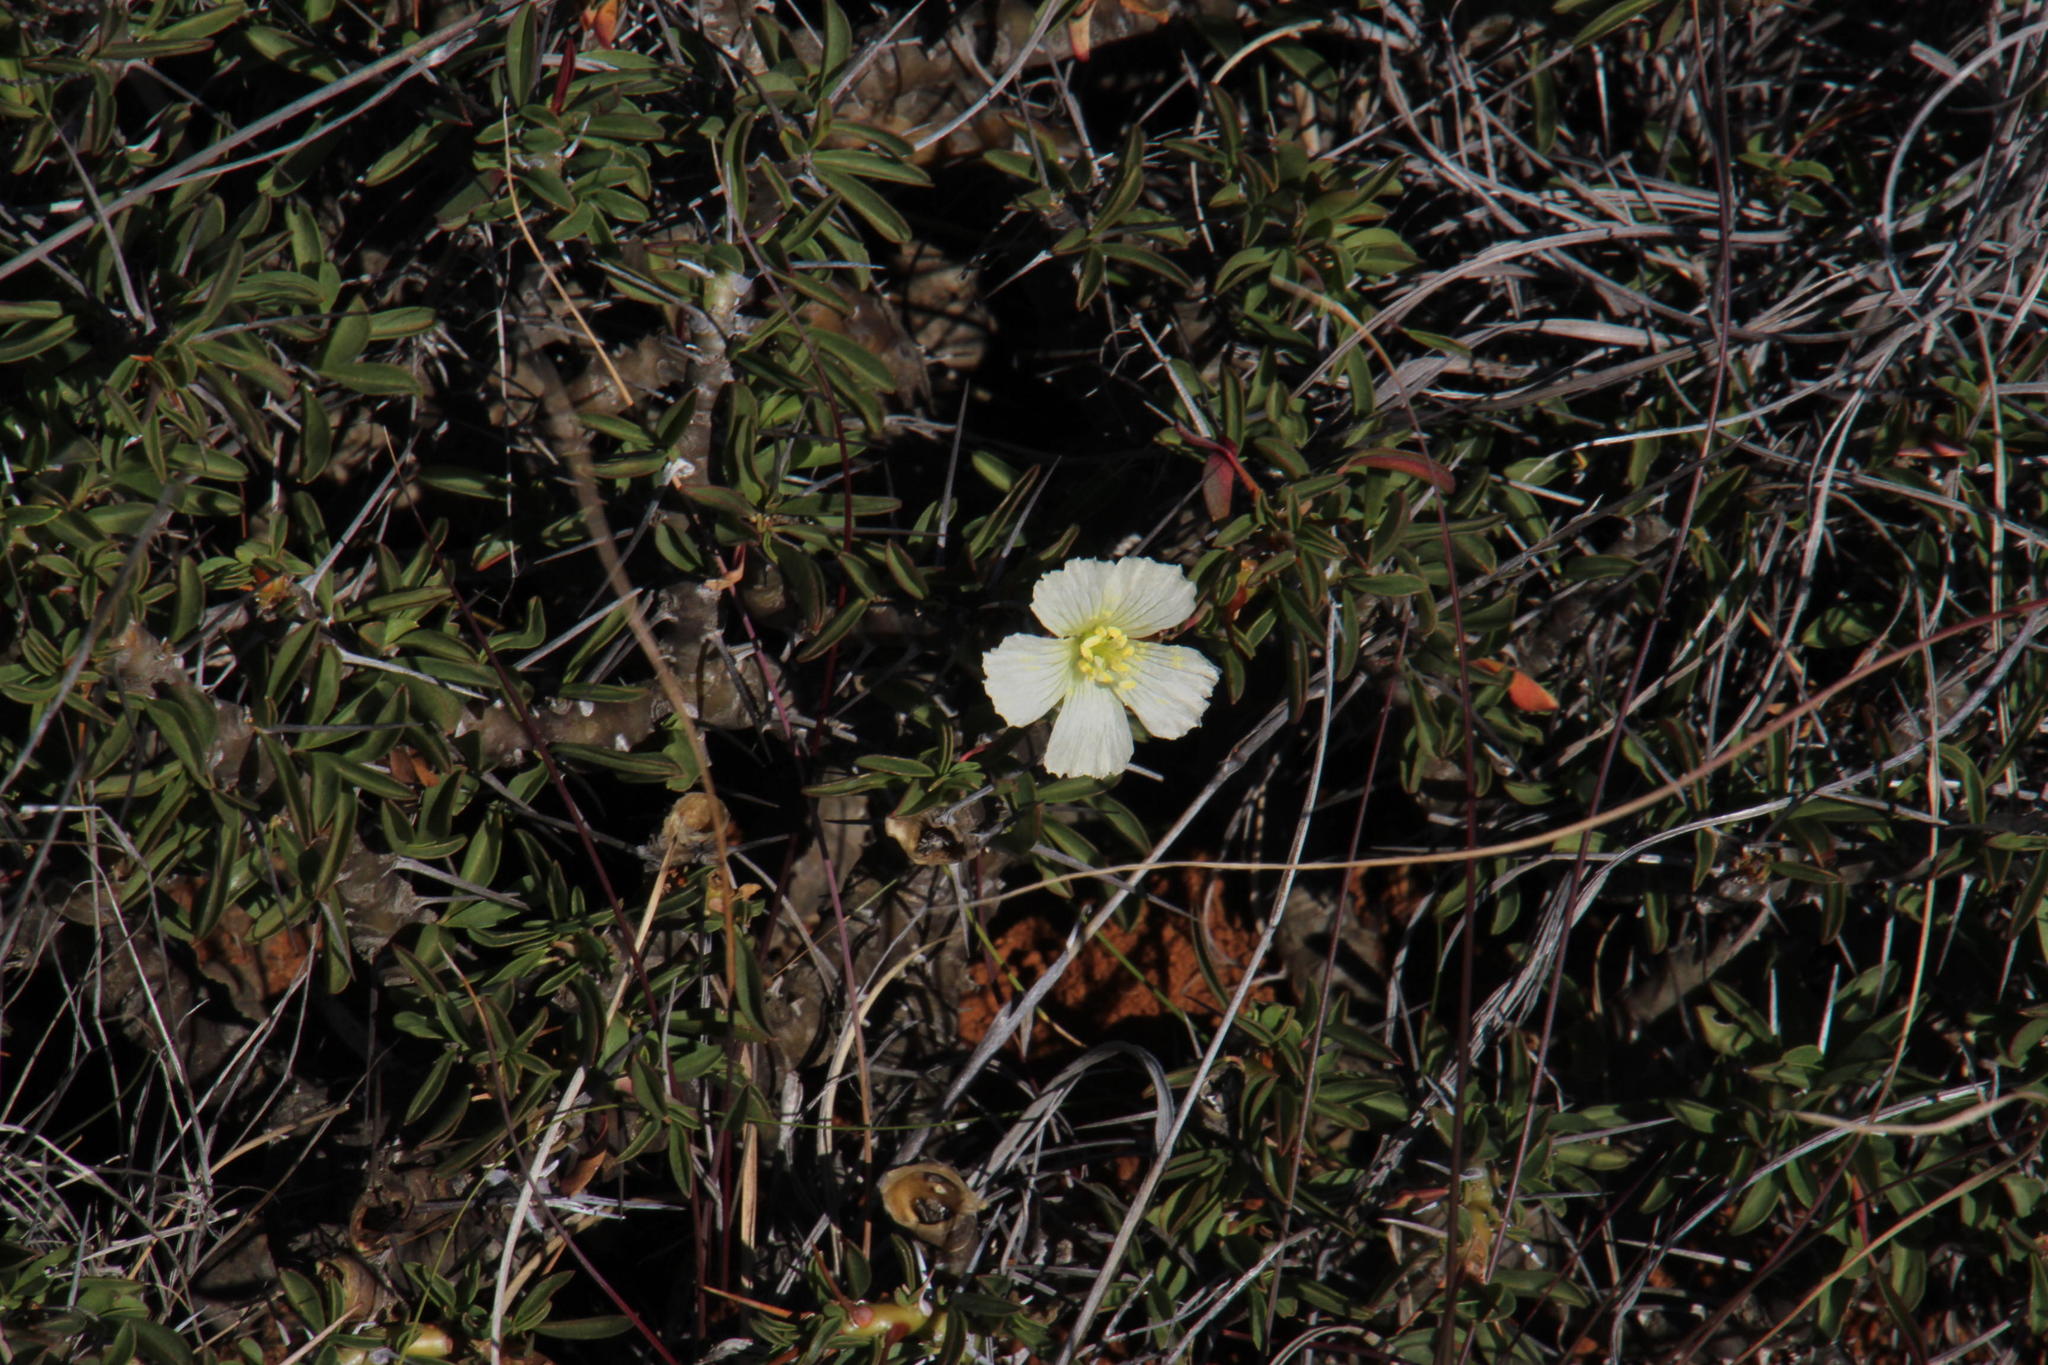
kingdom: Plantae
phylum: Tracheophyta
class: Magnoliopsida
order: Geraniales
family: Geraniaceae
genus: Monsonia
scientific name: Monsonia camdeboensis
